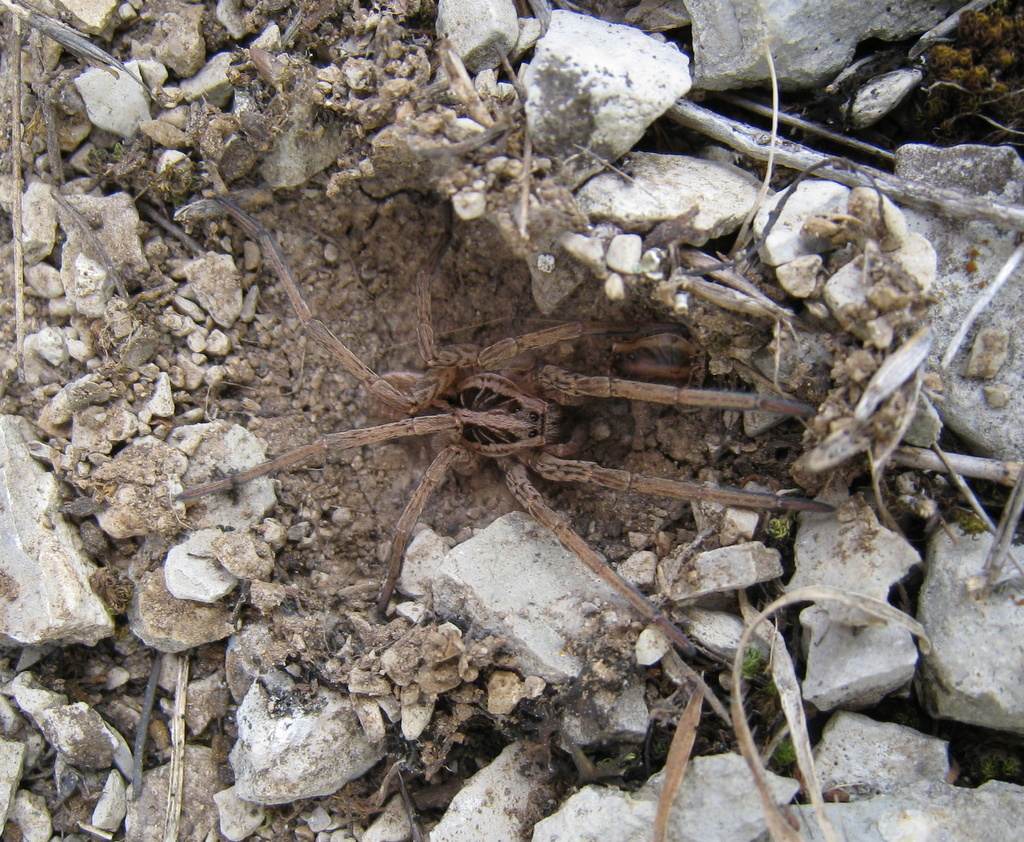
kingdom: Animalia
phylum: Arthropoda
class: Arachnida
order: Araneae
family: Lycosidae
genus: Hogna
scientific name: Hogna radiata
